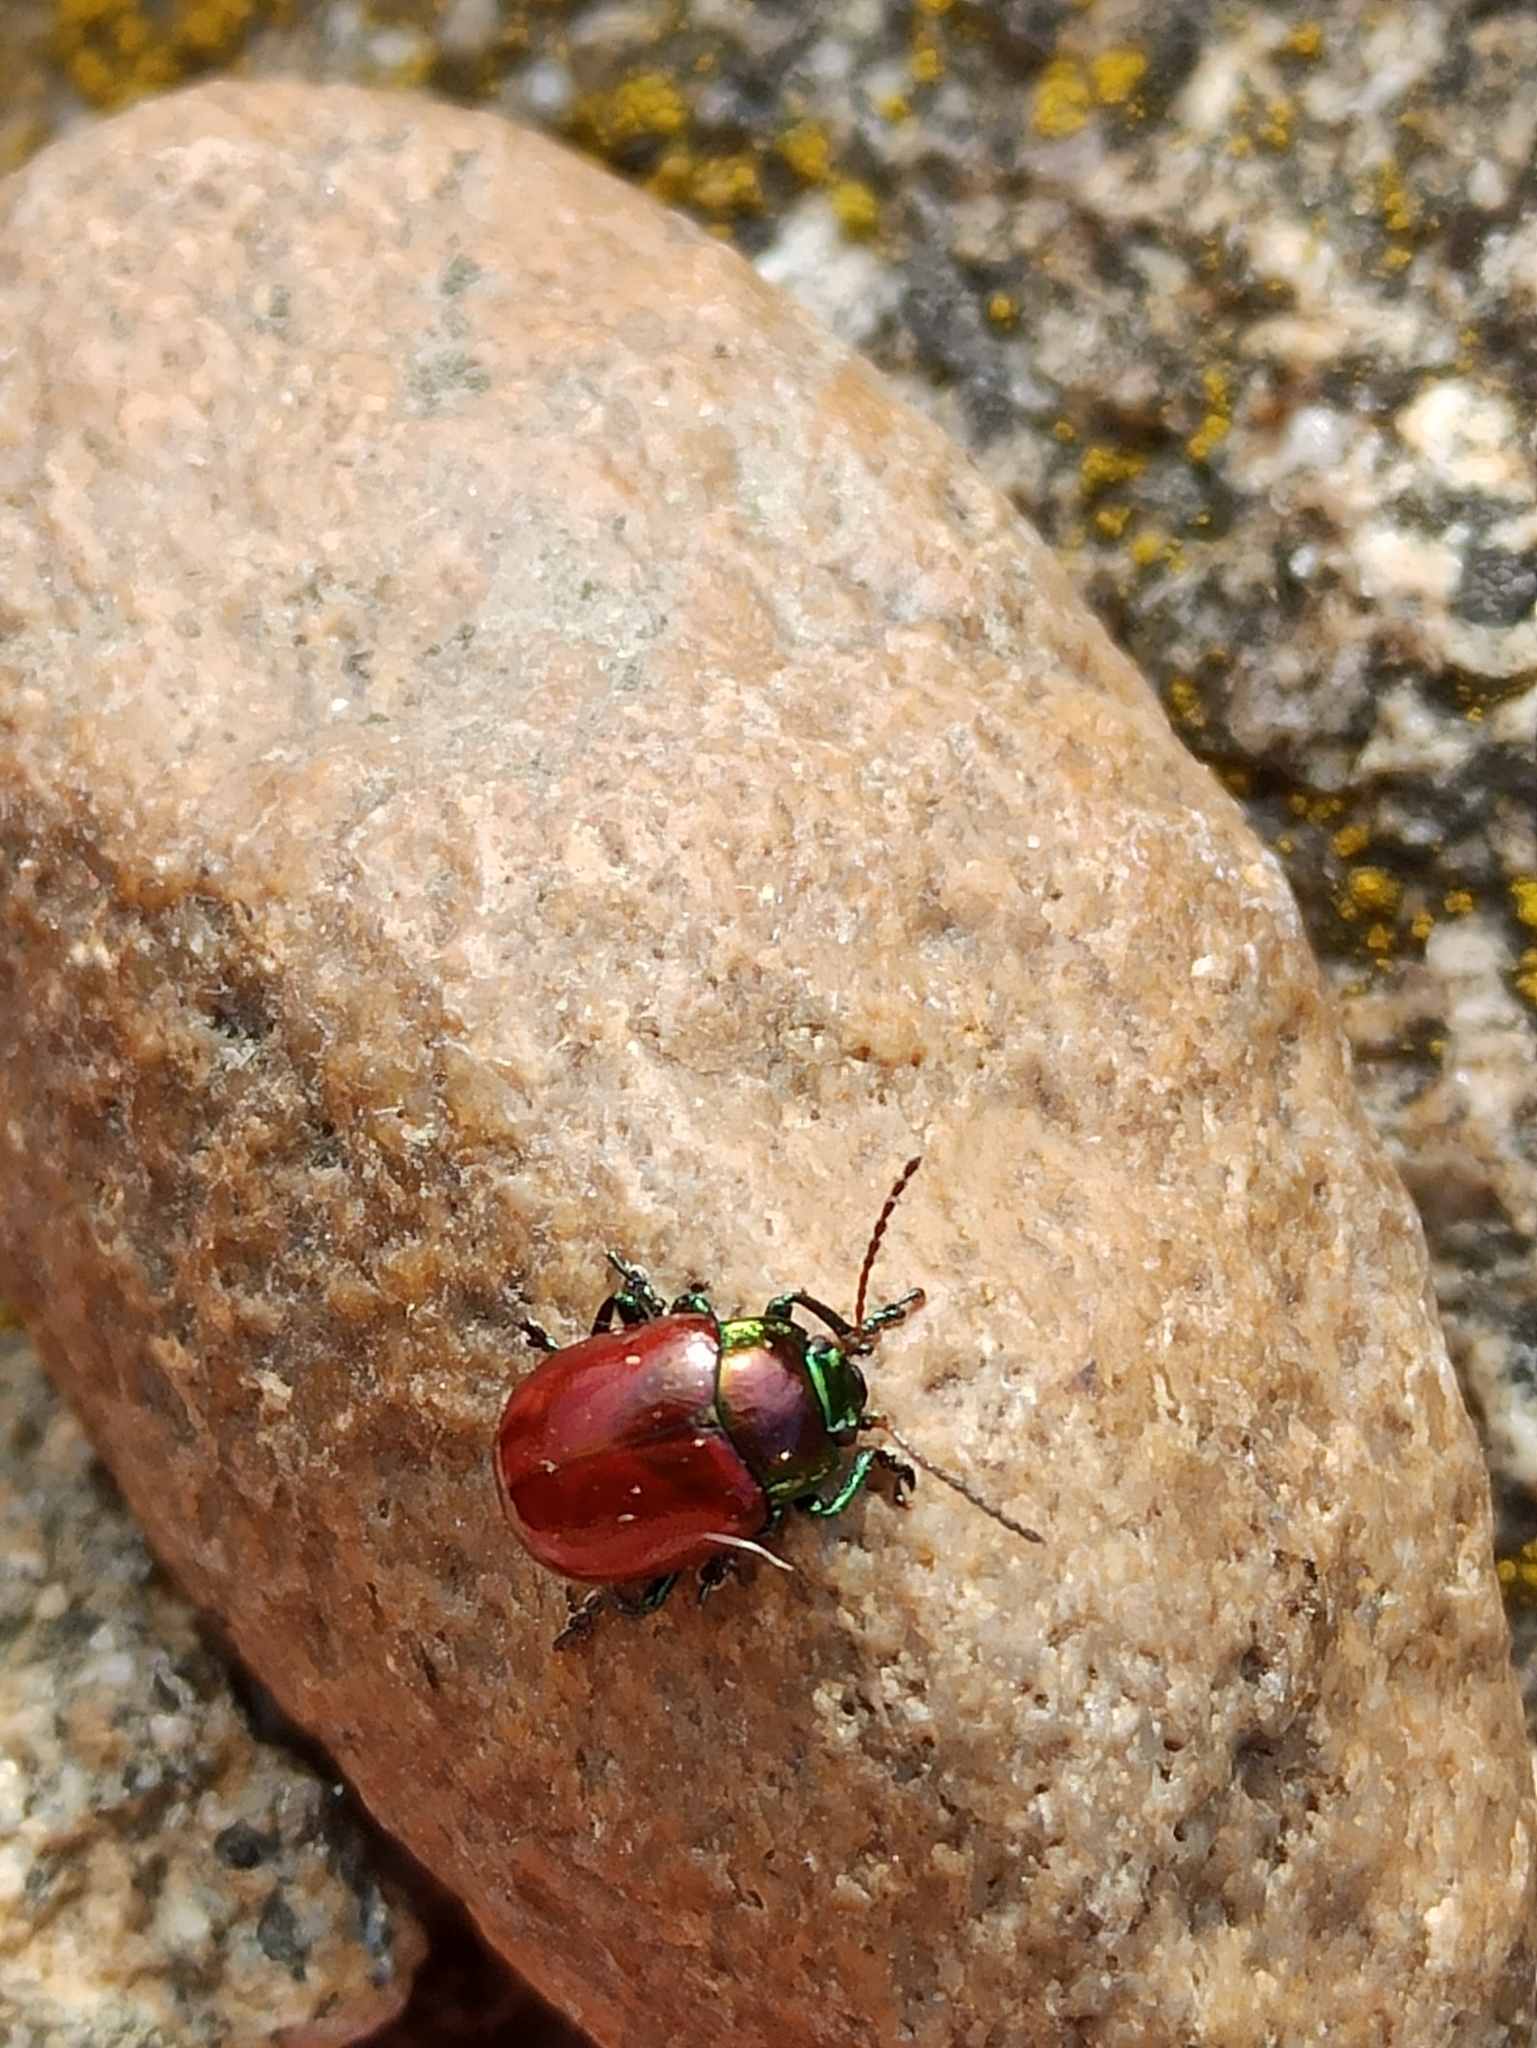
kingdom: Animalia
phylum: Arthropoda
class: Insecta
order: Coleoptera
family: Chrysomelidae
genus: Chrysomela
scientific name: Chrysomela polita
